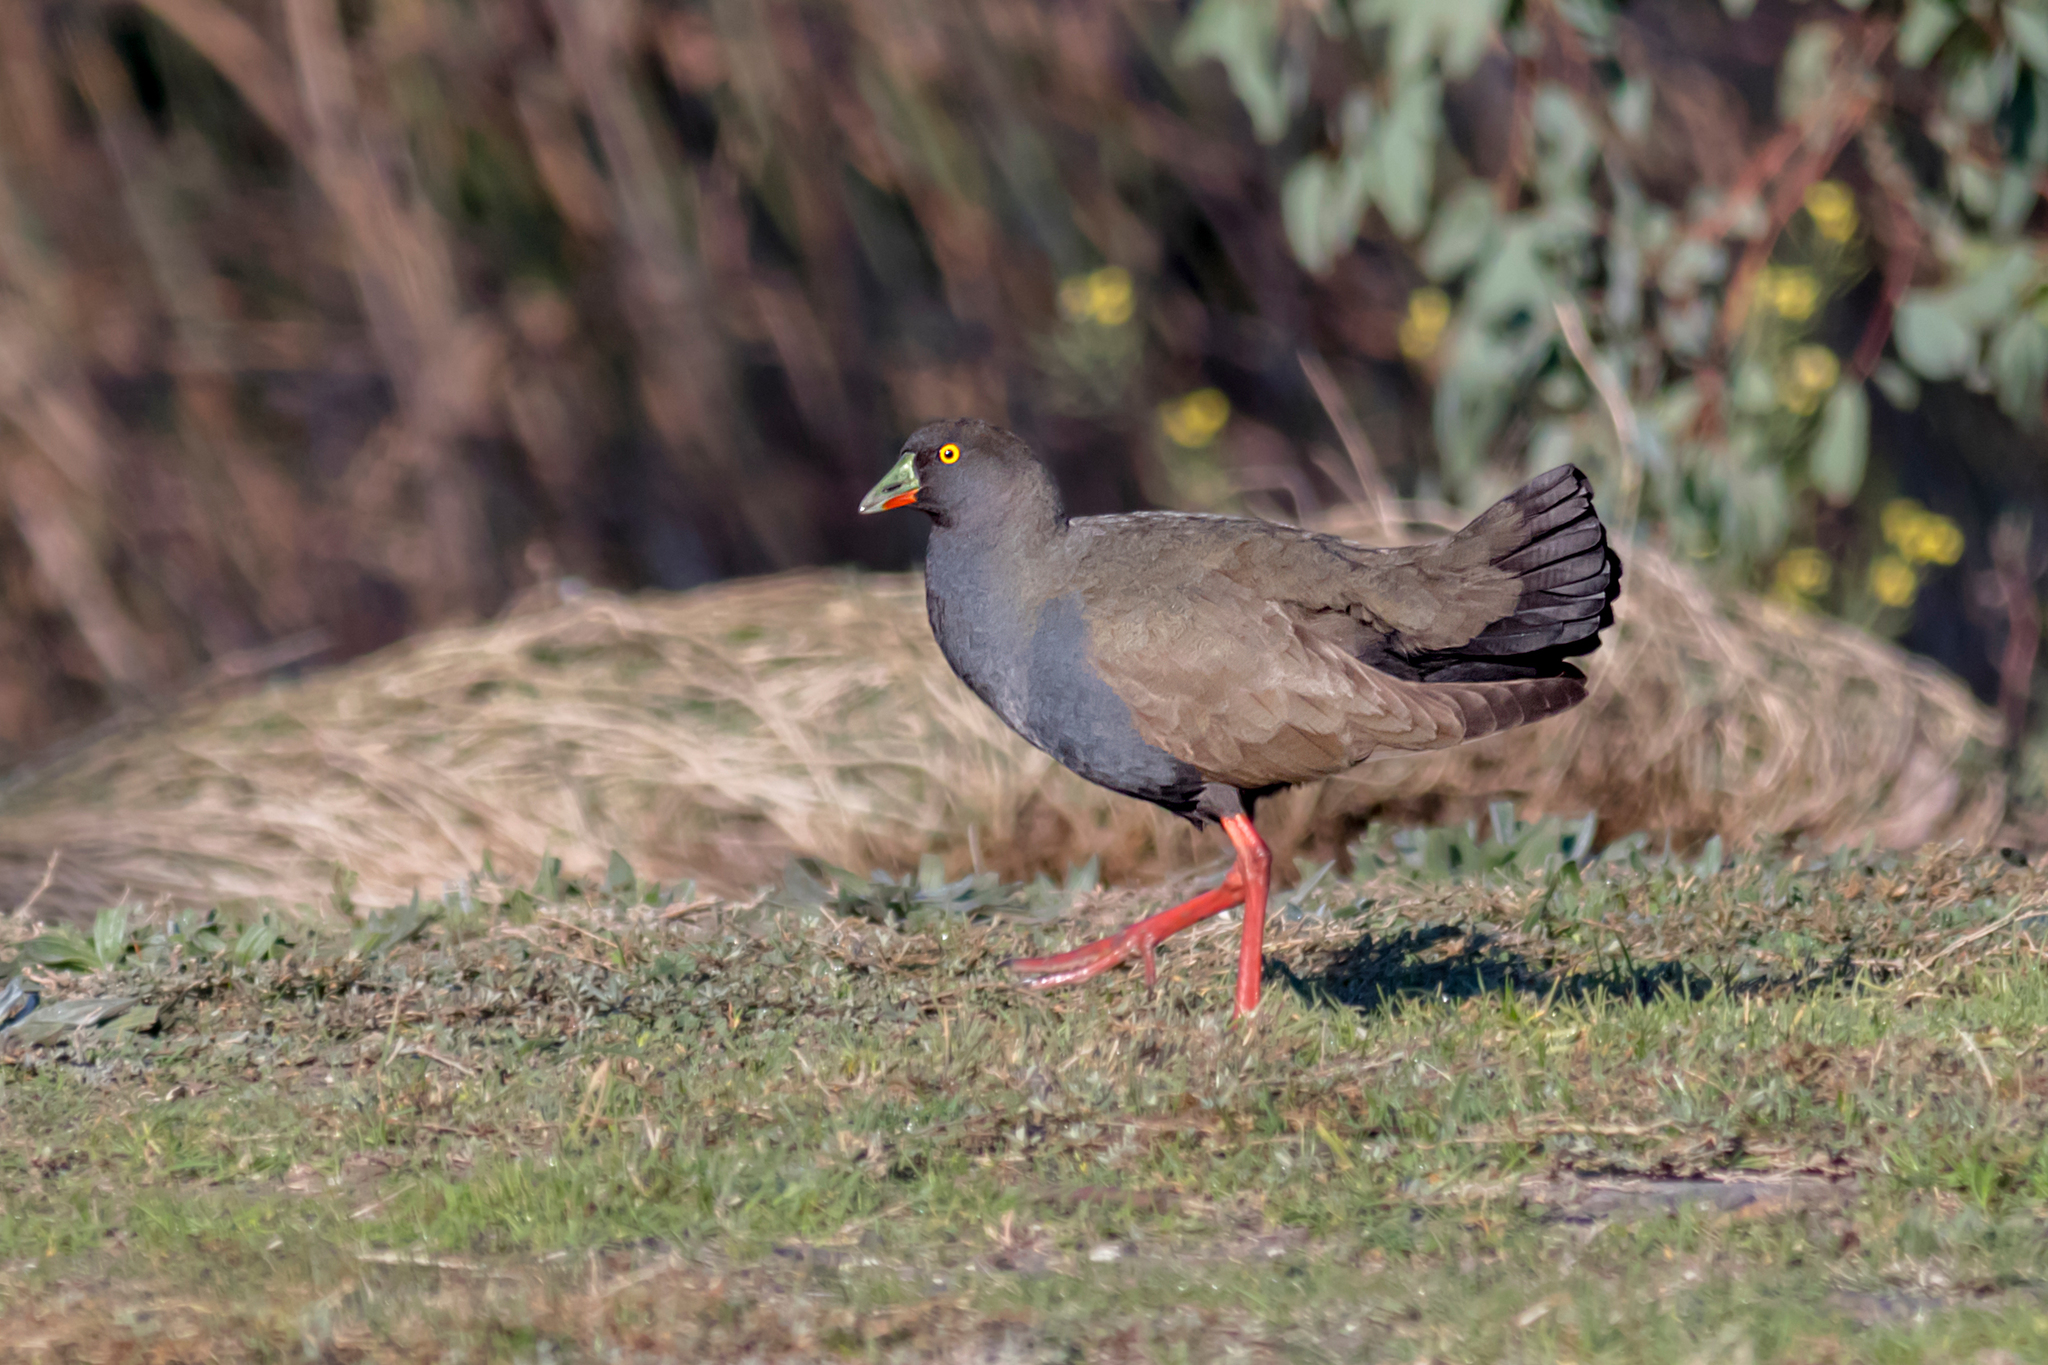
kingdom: Animalia
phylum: Chordata
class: Aves
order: Gruiformes
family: Rallidae
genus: Gallinula
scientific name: Gallinula ventralis
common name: Black-tailed nativehen
